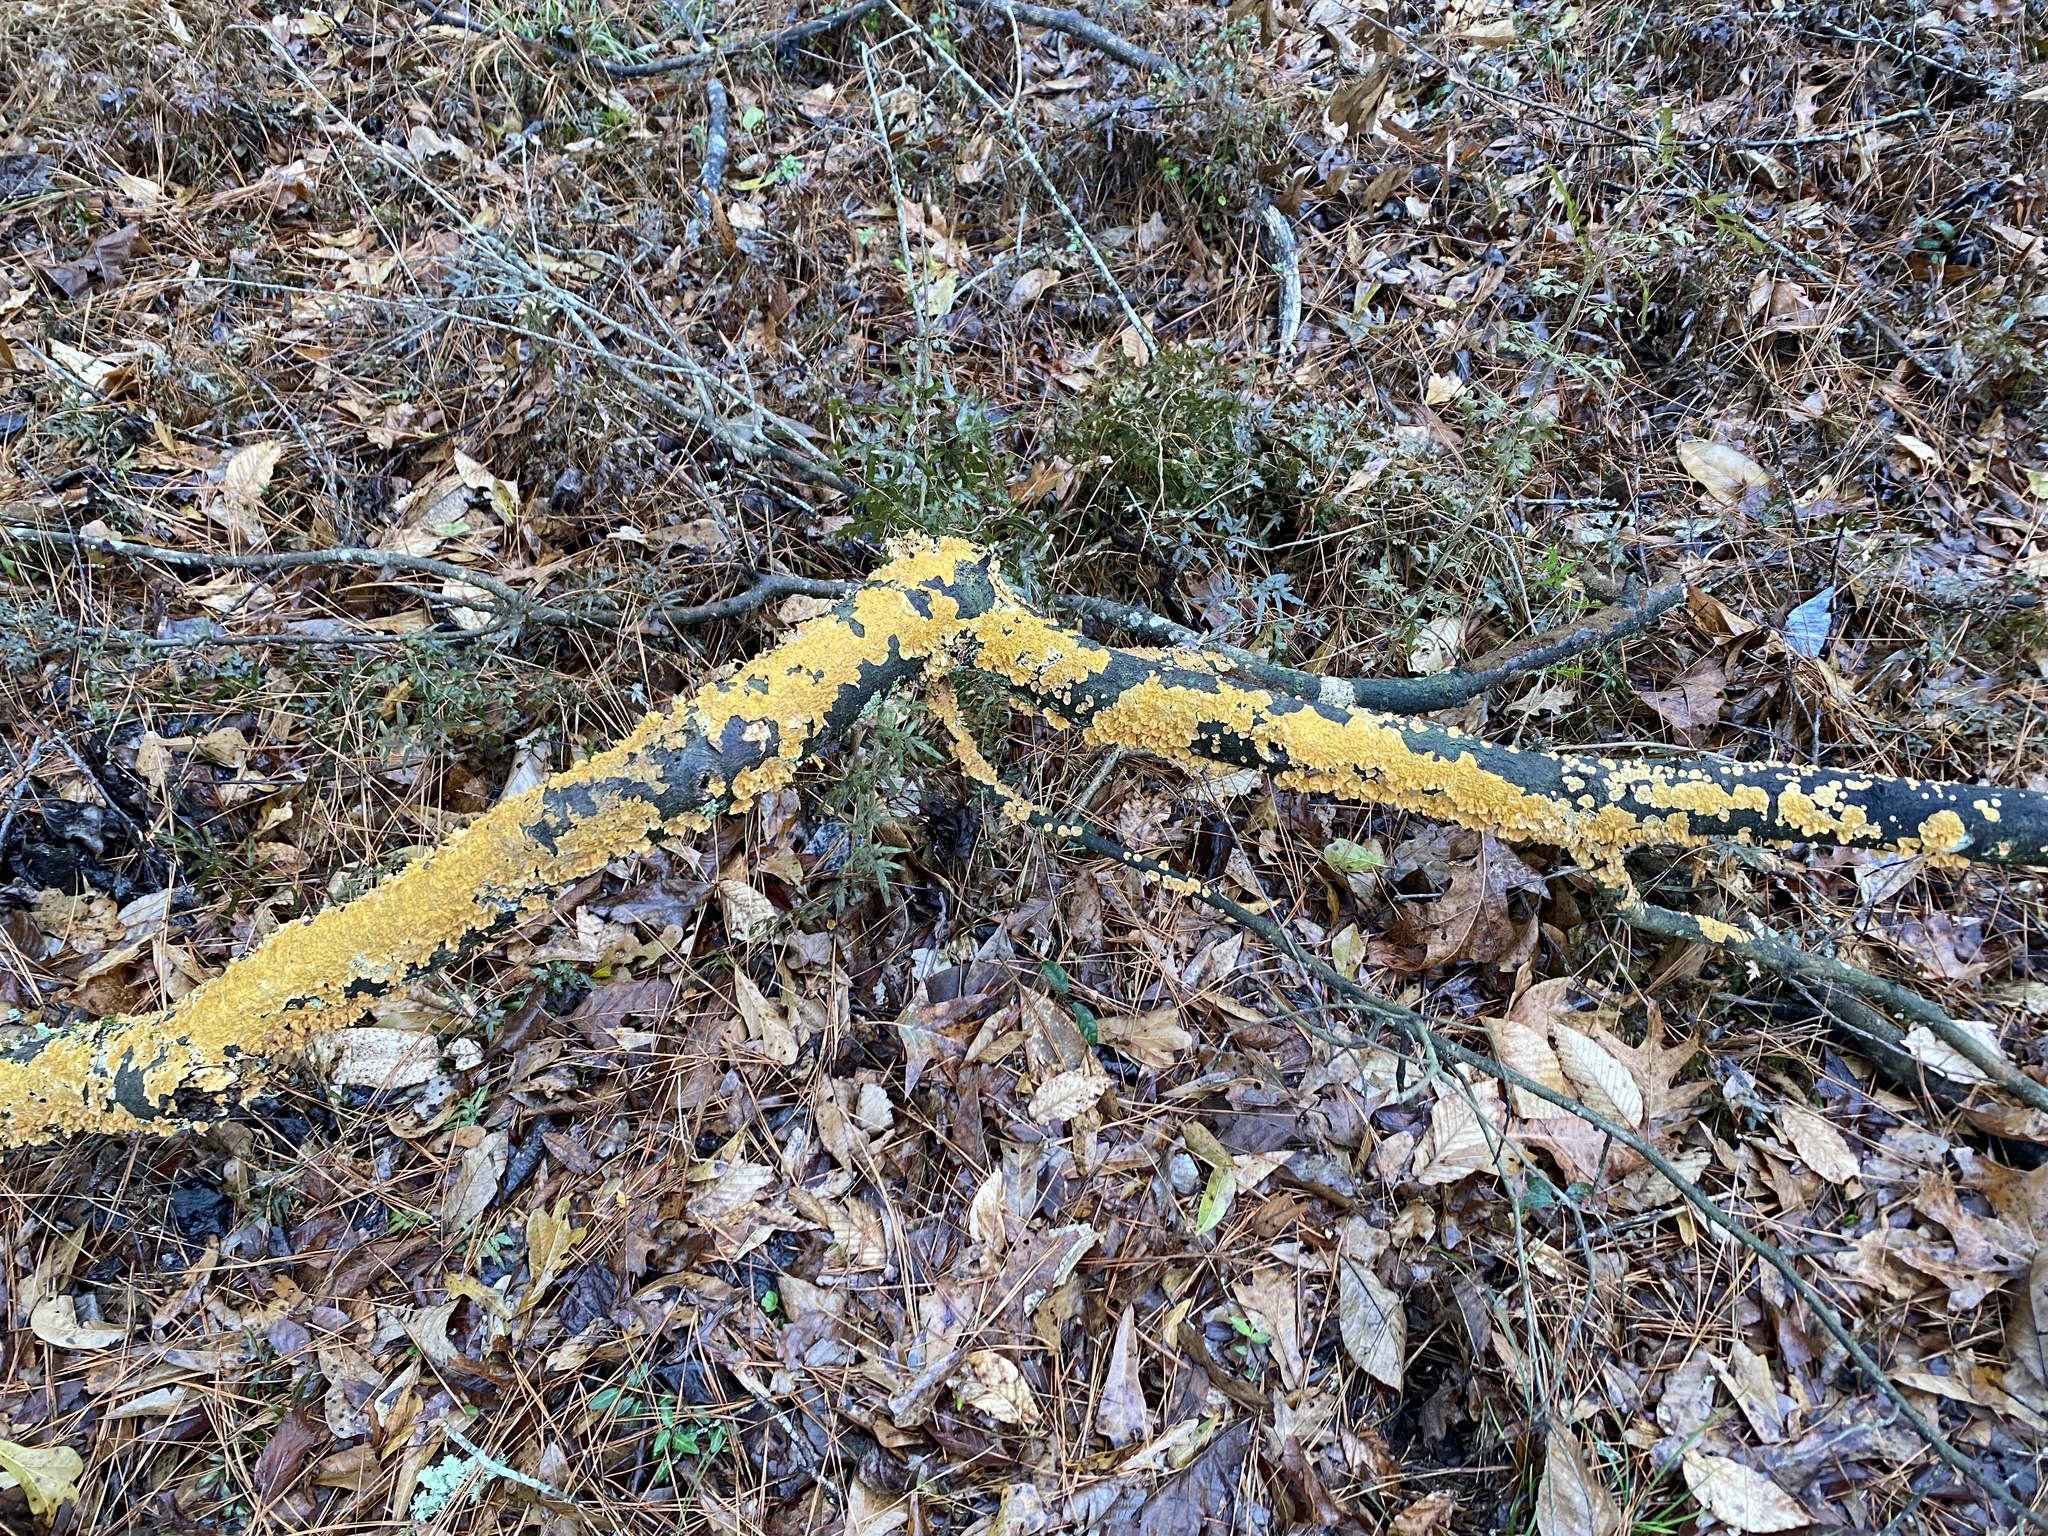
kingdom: Fungi
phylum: Basidiomycota
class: Agaricomycetes
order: Russulales
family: Stereaceae
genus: Stereum
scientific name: Stereum complicatum
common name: Crowded parchment
